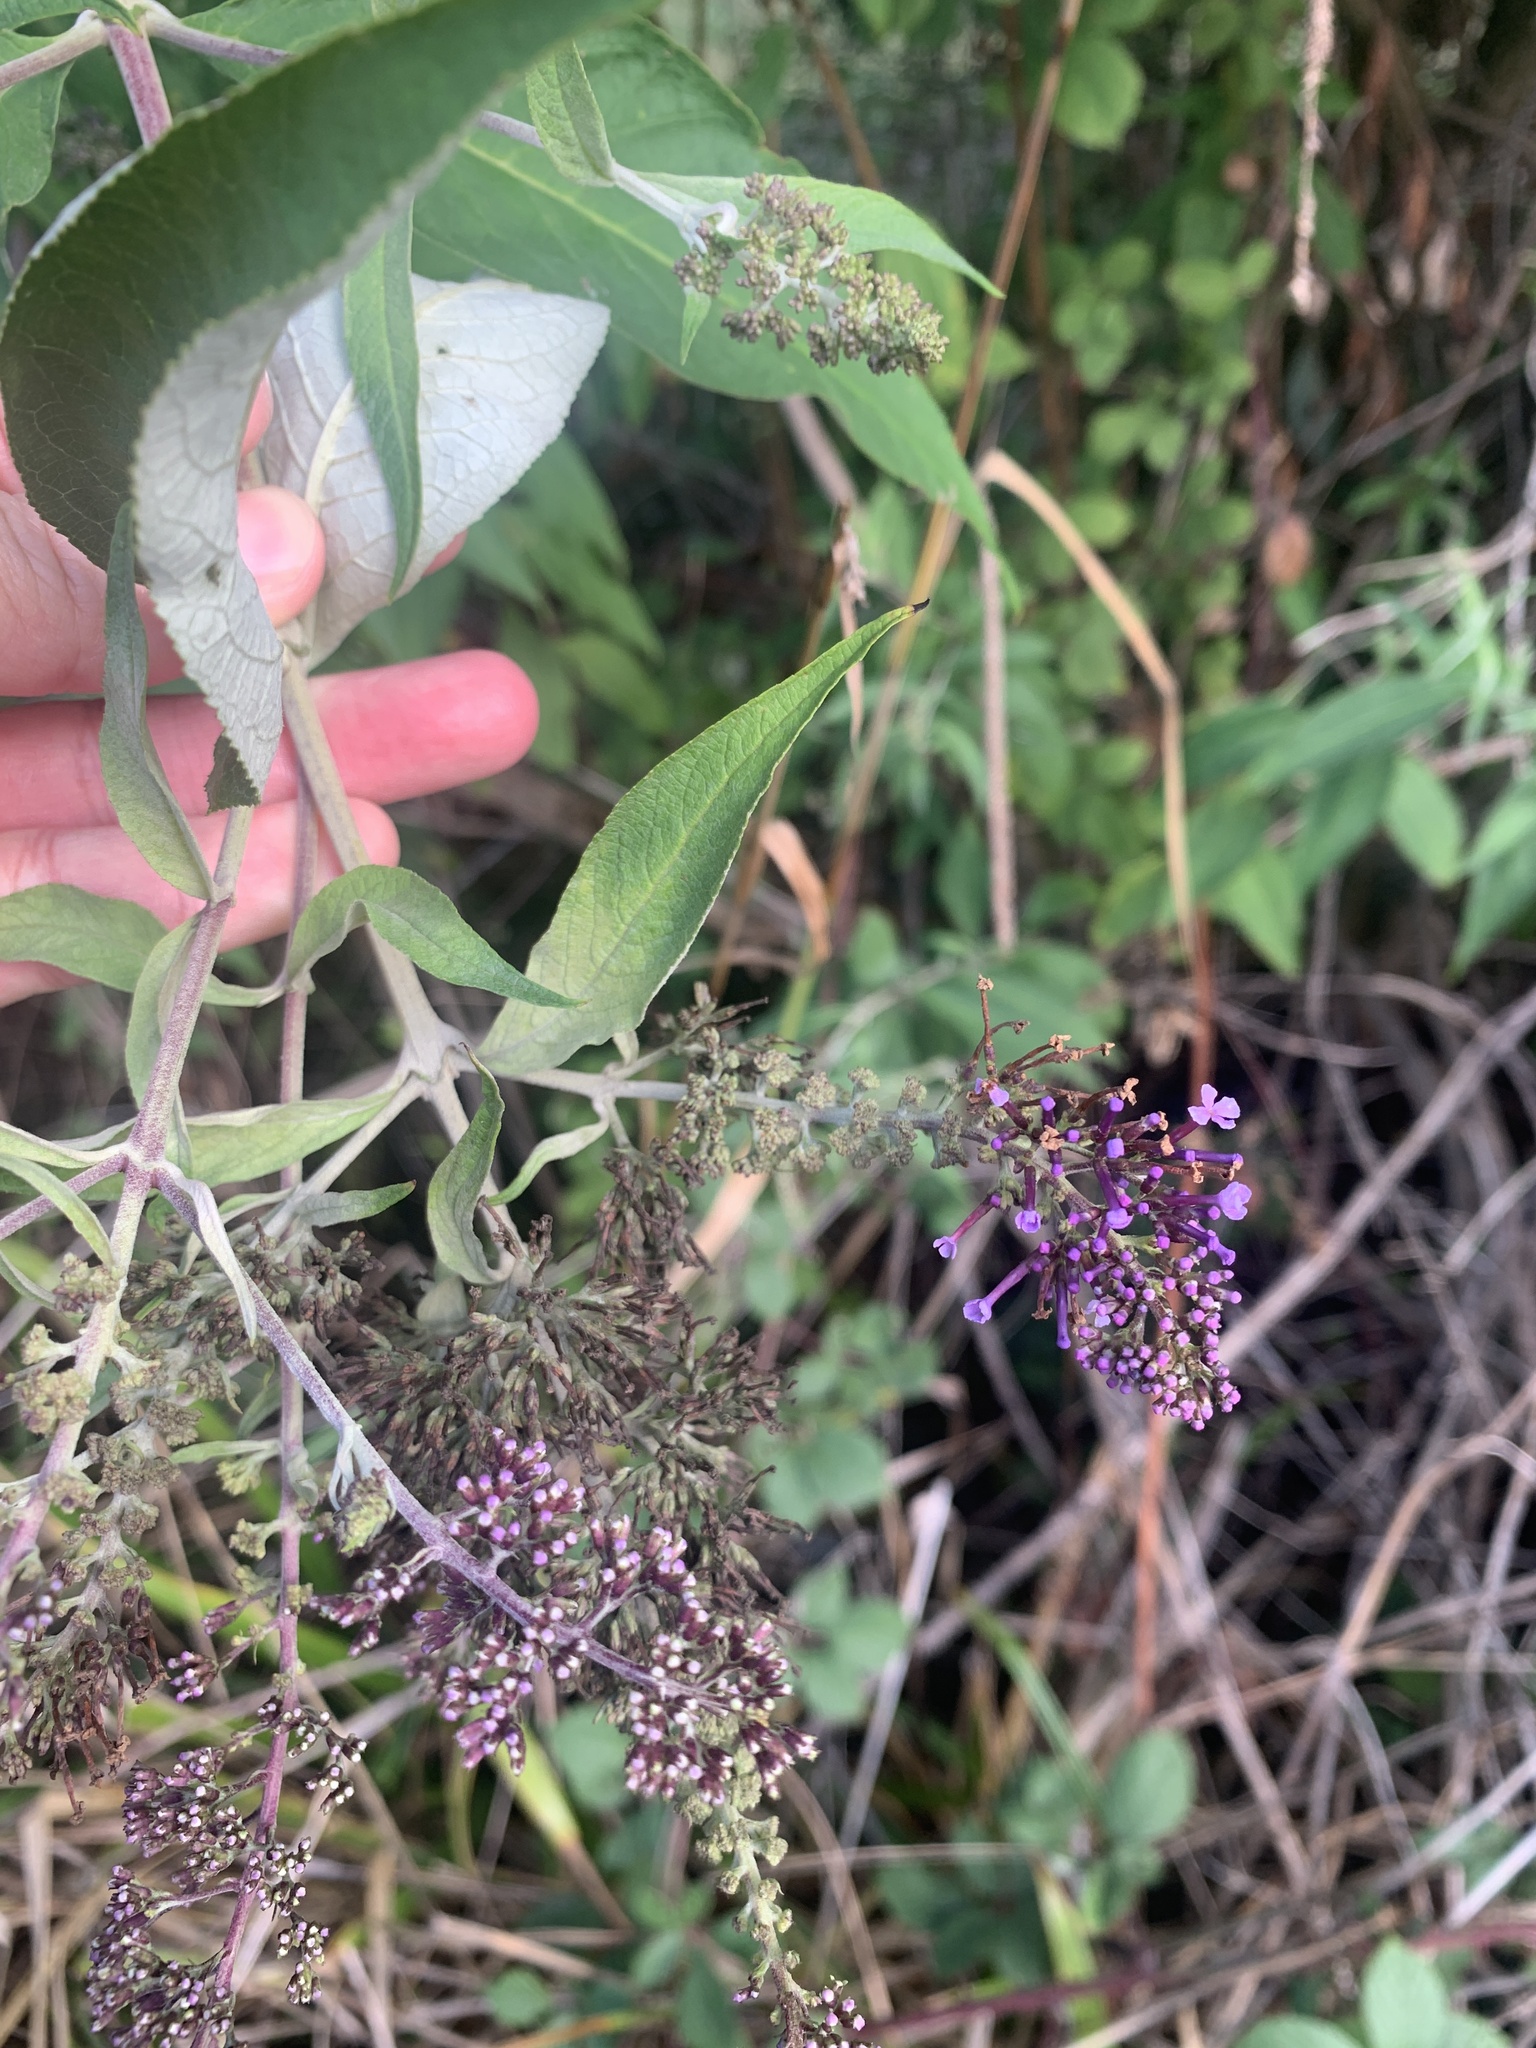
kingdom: Plantae
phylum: Tracheophyta
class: Magnoliopsida
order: Lamiales
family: Scrophulariaceae
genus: Buddleja
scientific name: Buddleja davidii
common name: Butterfly-bush
